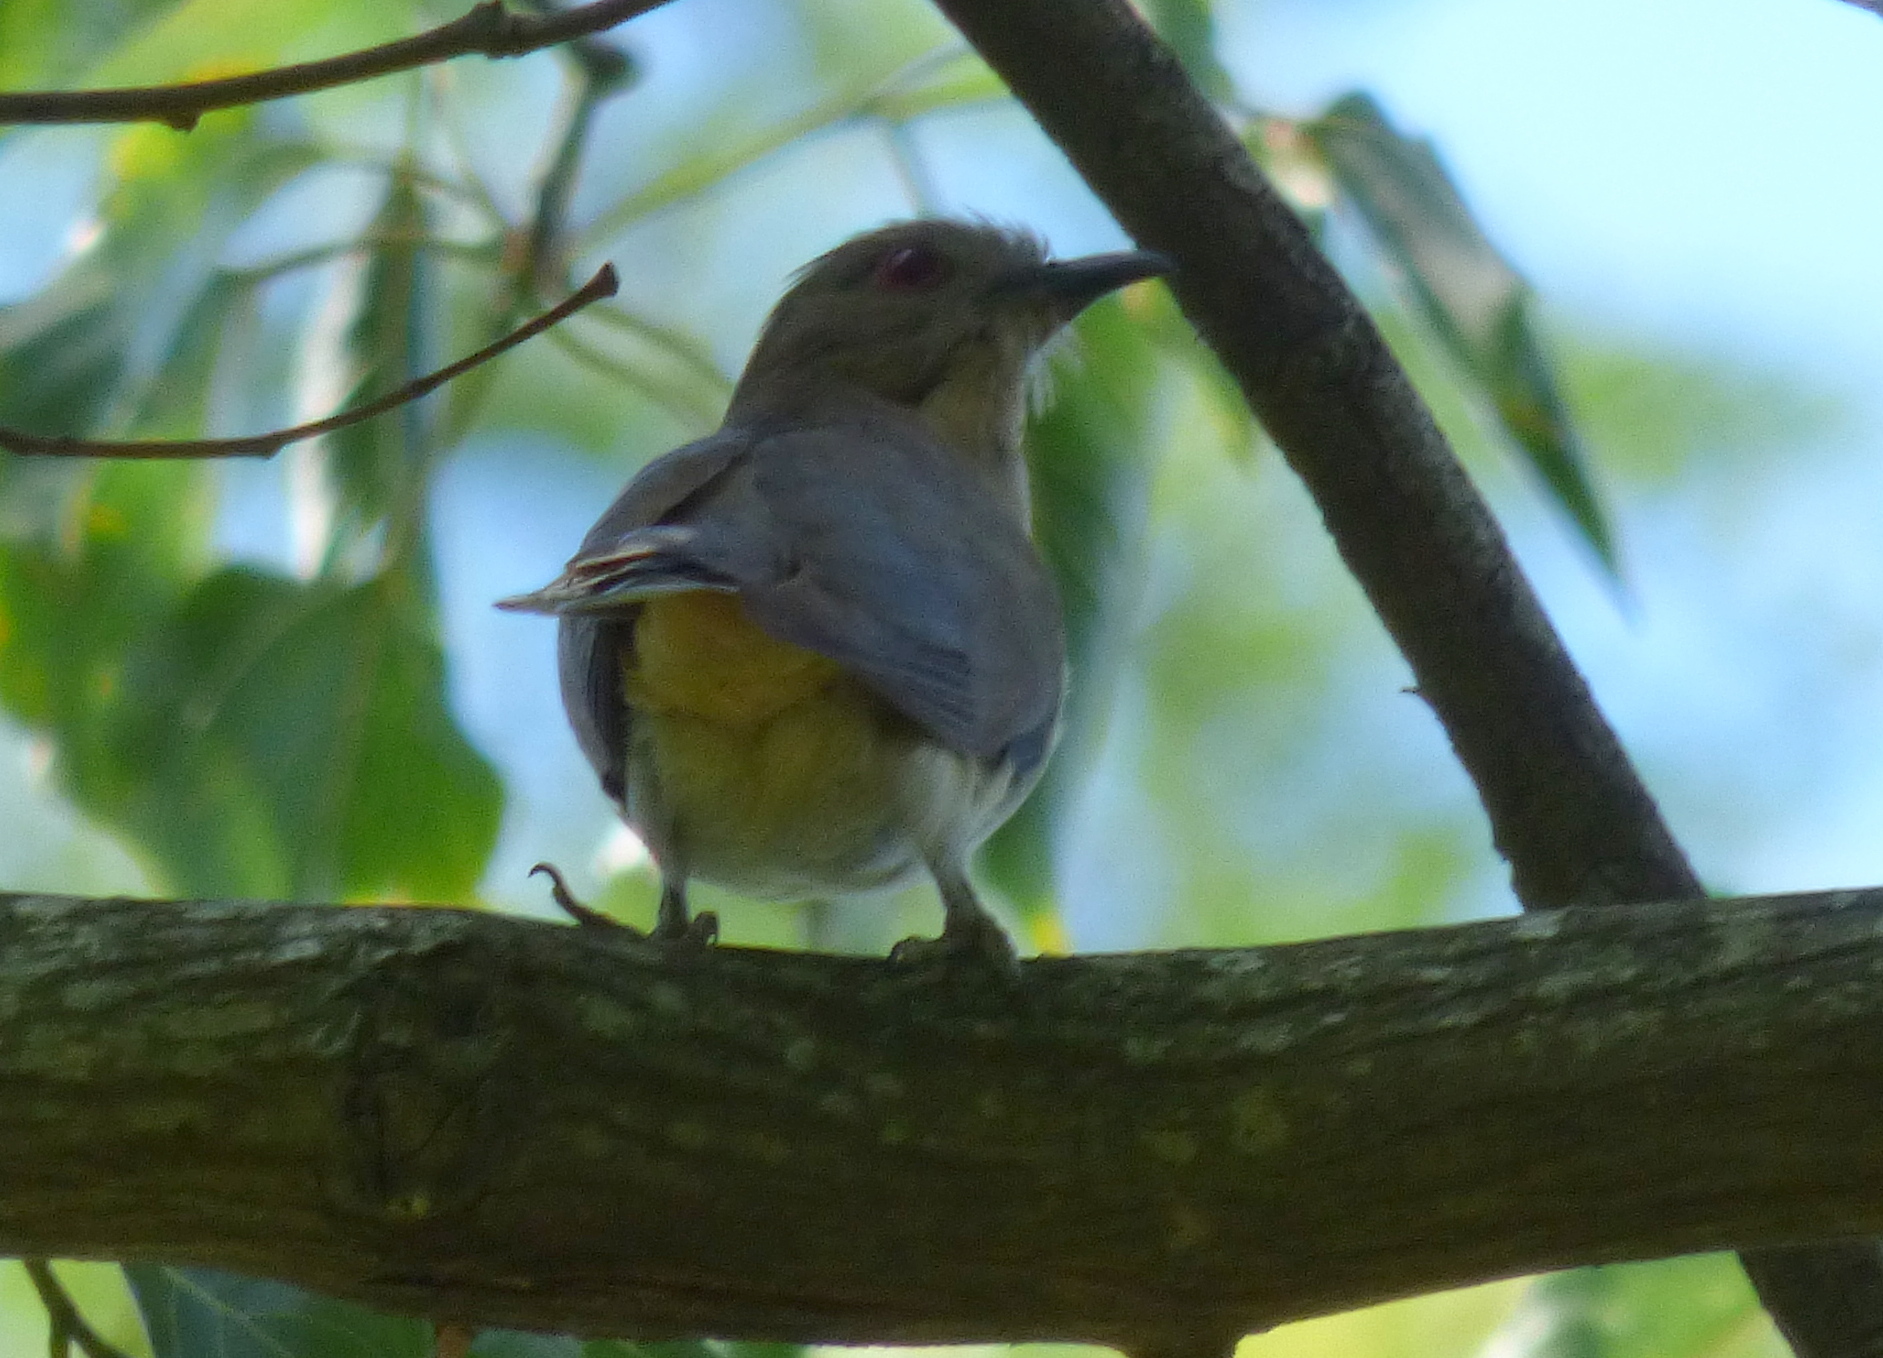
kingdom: Animalia
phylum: Chordata
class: Aves
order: Cuculiformes
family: Cuculidae
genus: Coccyzus
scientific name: Coccyzus cinereus
